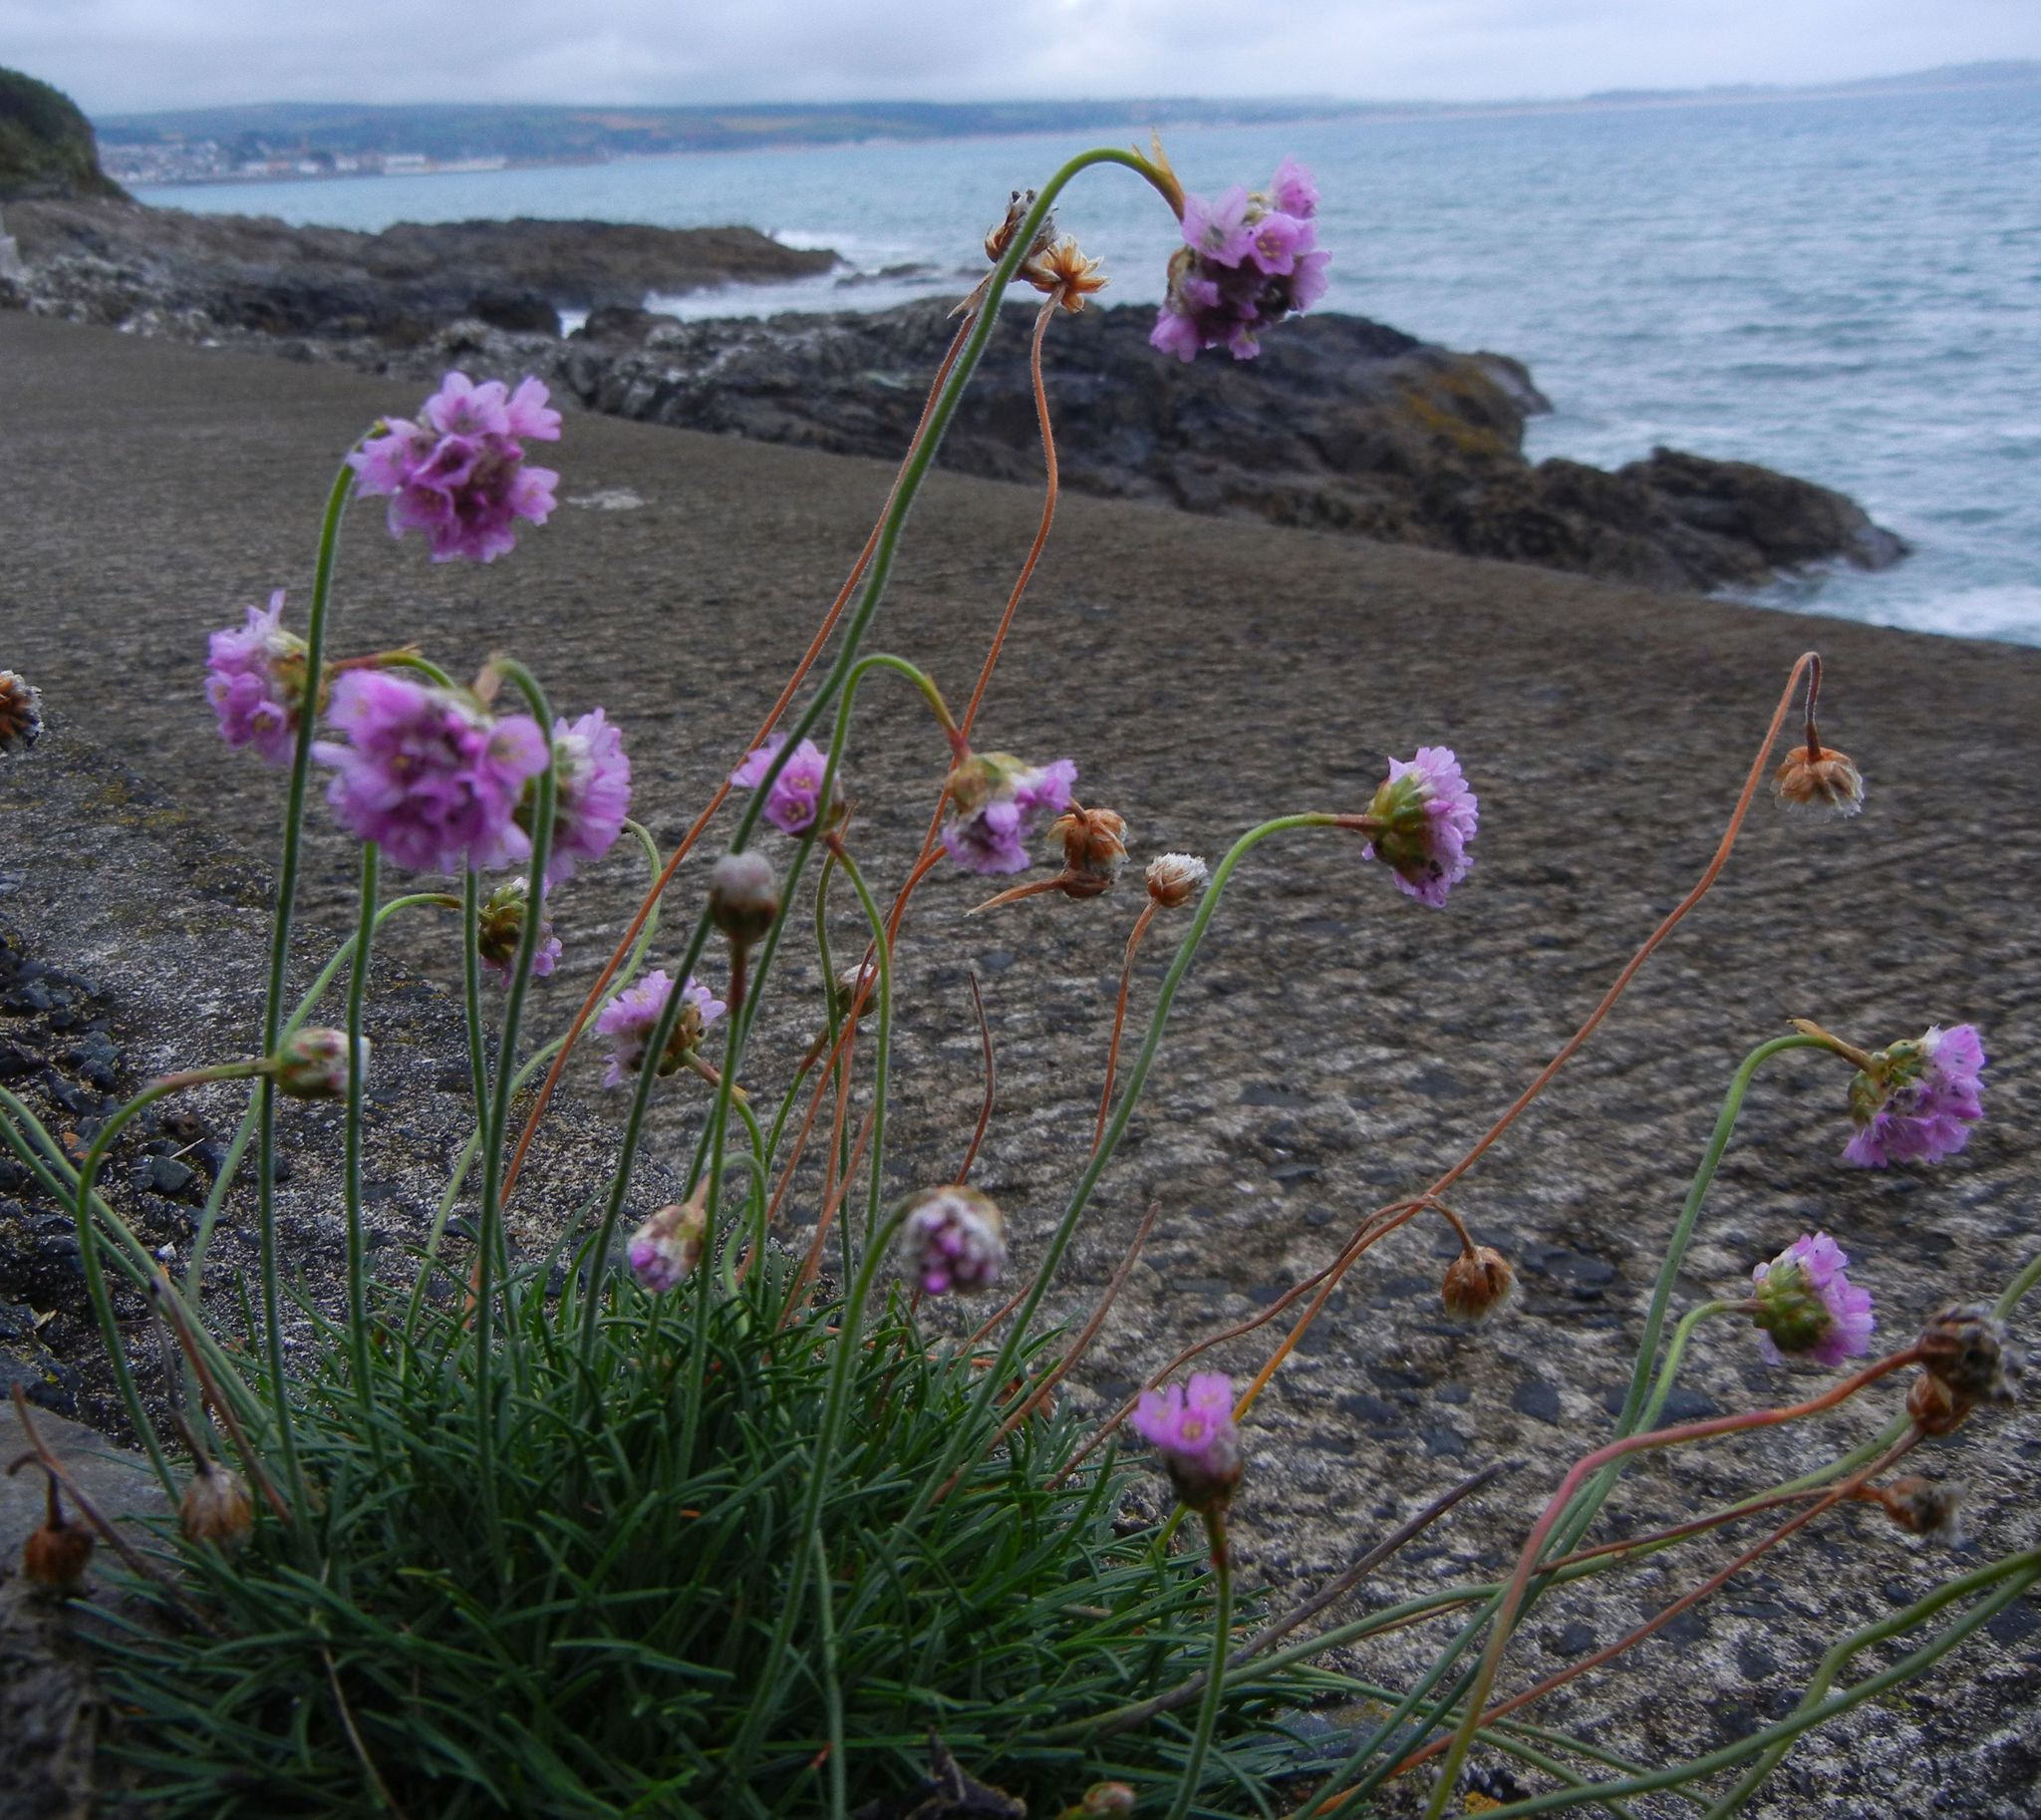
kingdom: Plantae
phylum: Tracheophyta
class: Magnoliopsida
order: Caryophyllales
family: Plumbaginaceae
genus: Armeria
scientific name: Armeria maritima
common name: Thrift
